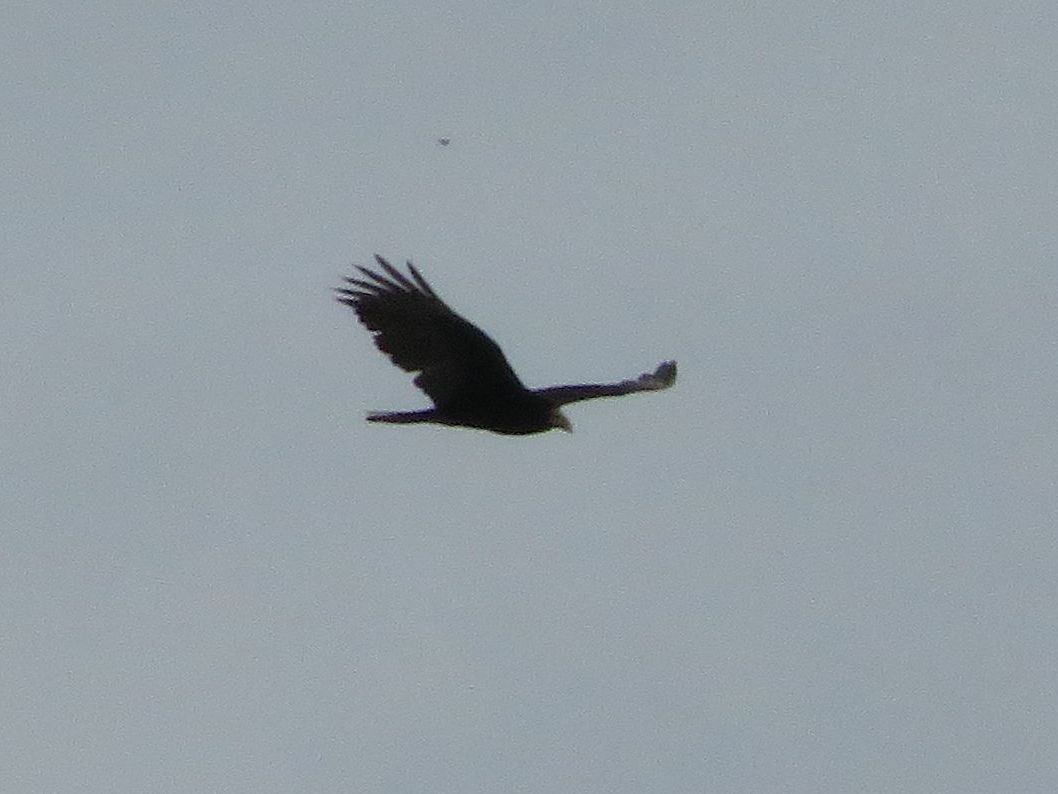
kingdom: Animalia
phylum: Chordata
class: Aves
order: Accipitriformes
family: Cathartidae
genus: Cathartes
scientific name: Cathartes burrovianus
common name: Lesser yellow-headed vulture
